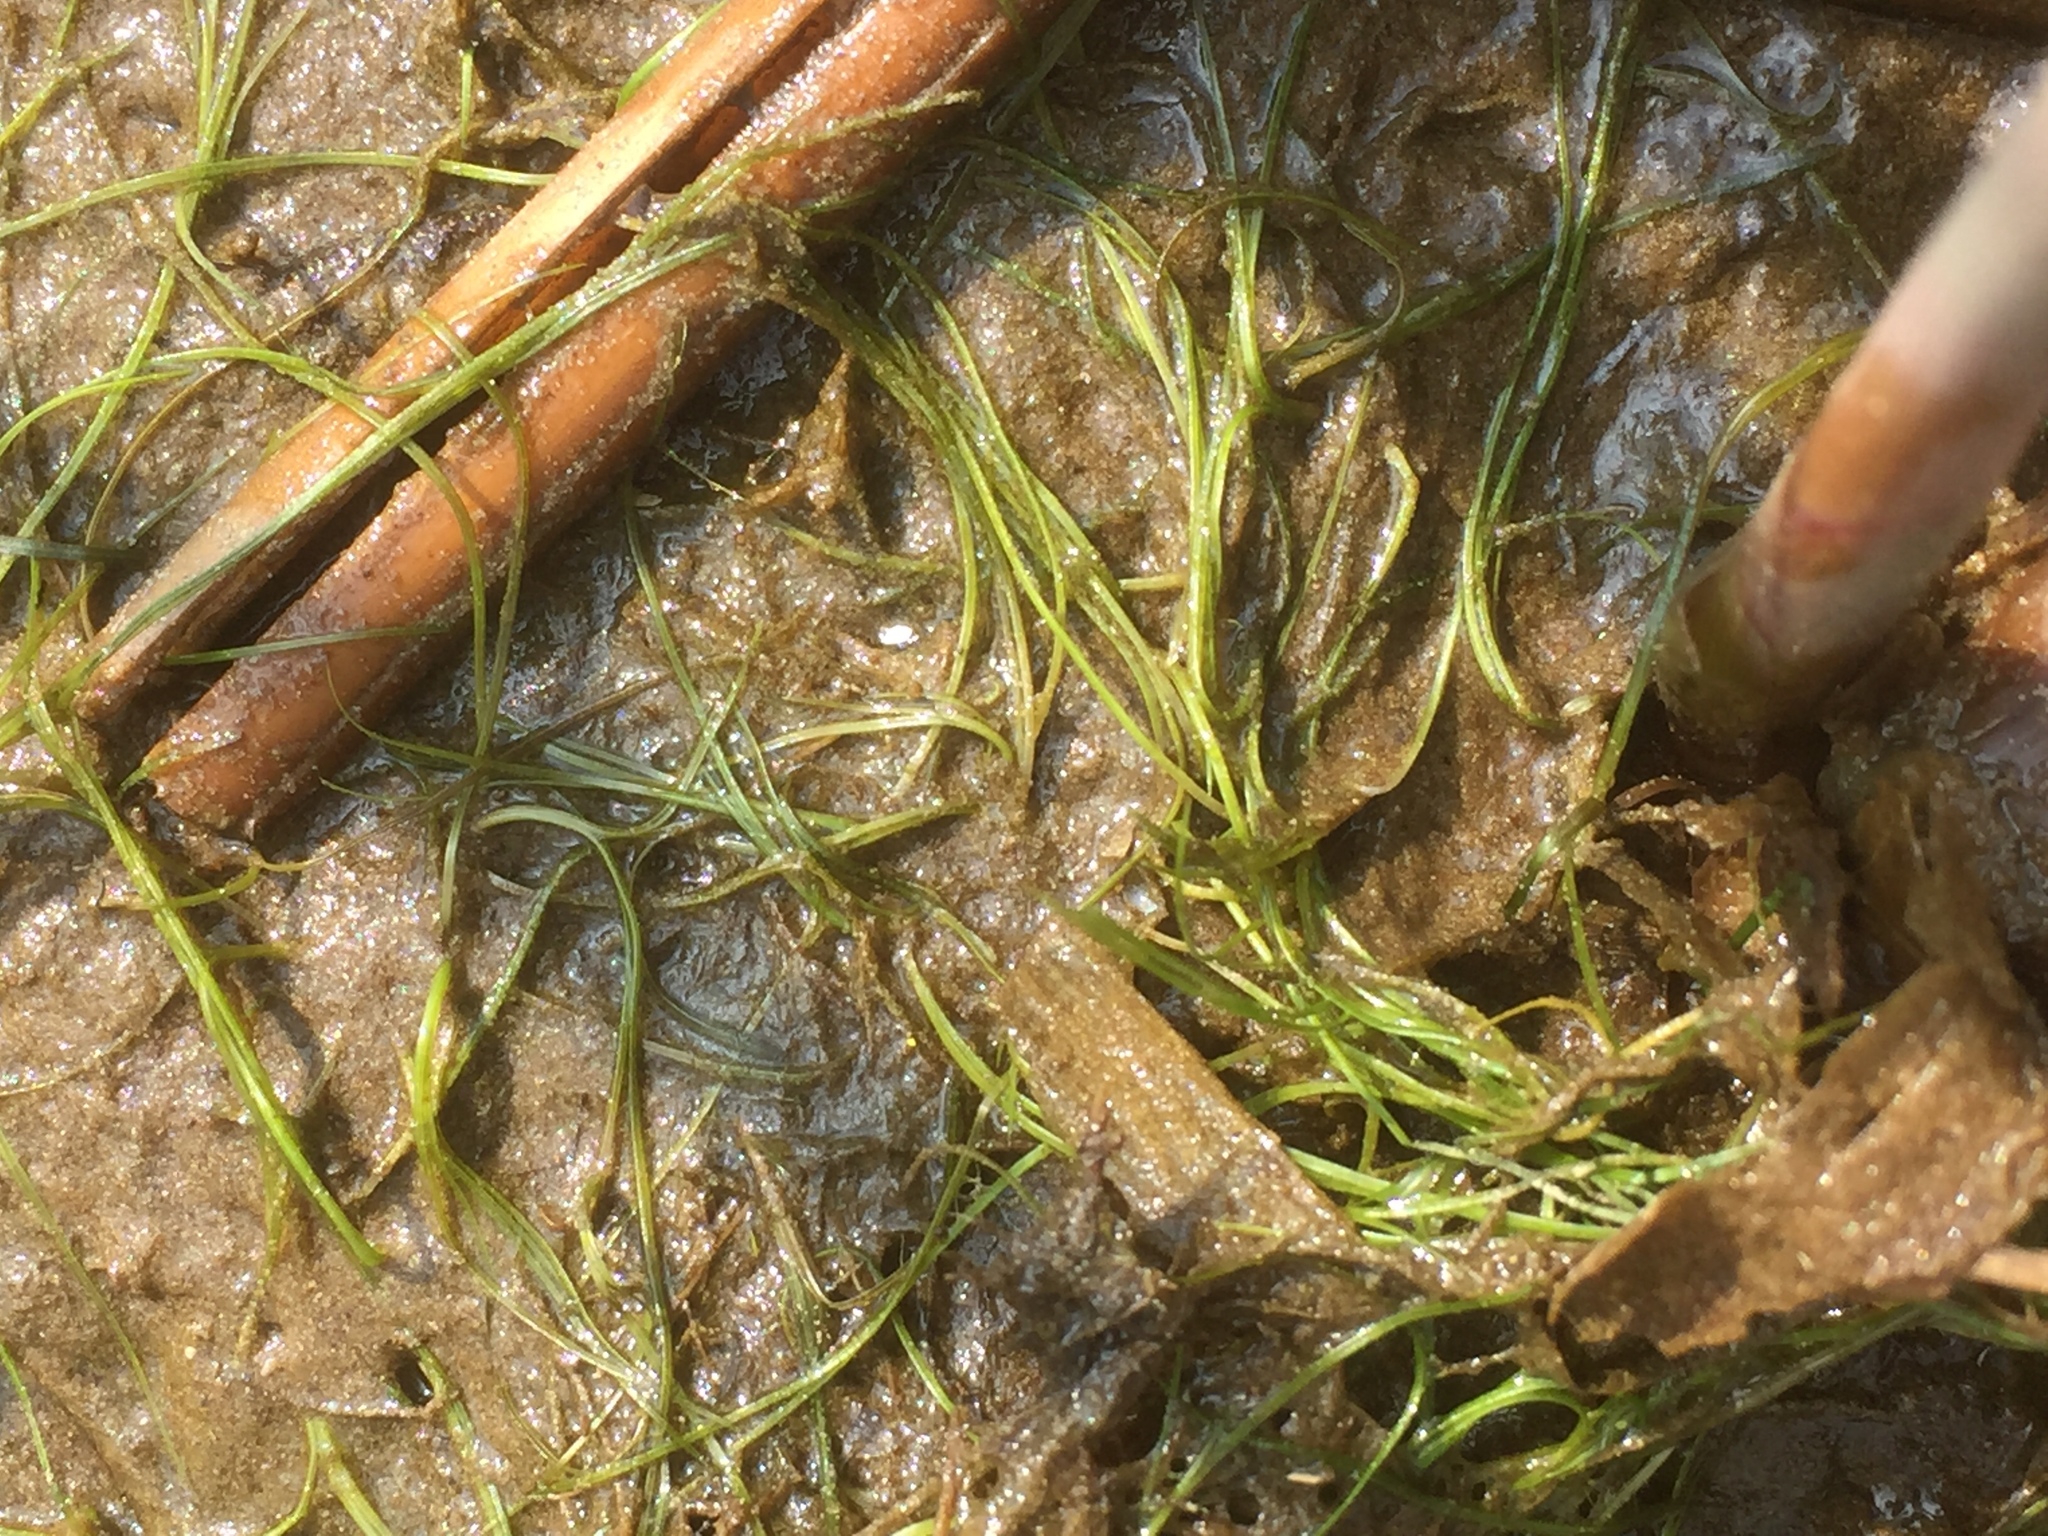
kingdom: Plantae
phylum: Tracheophyta
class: Liliopsida
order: Poales
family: Cyperaceae
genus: Eleocharis
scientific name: Eleocharis acicularis
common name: Needle spike-rush
